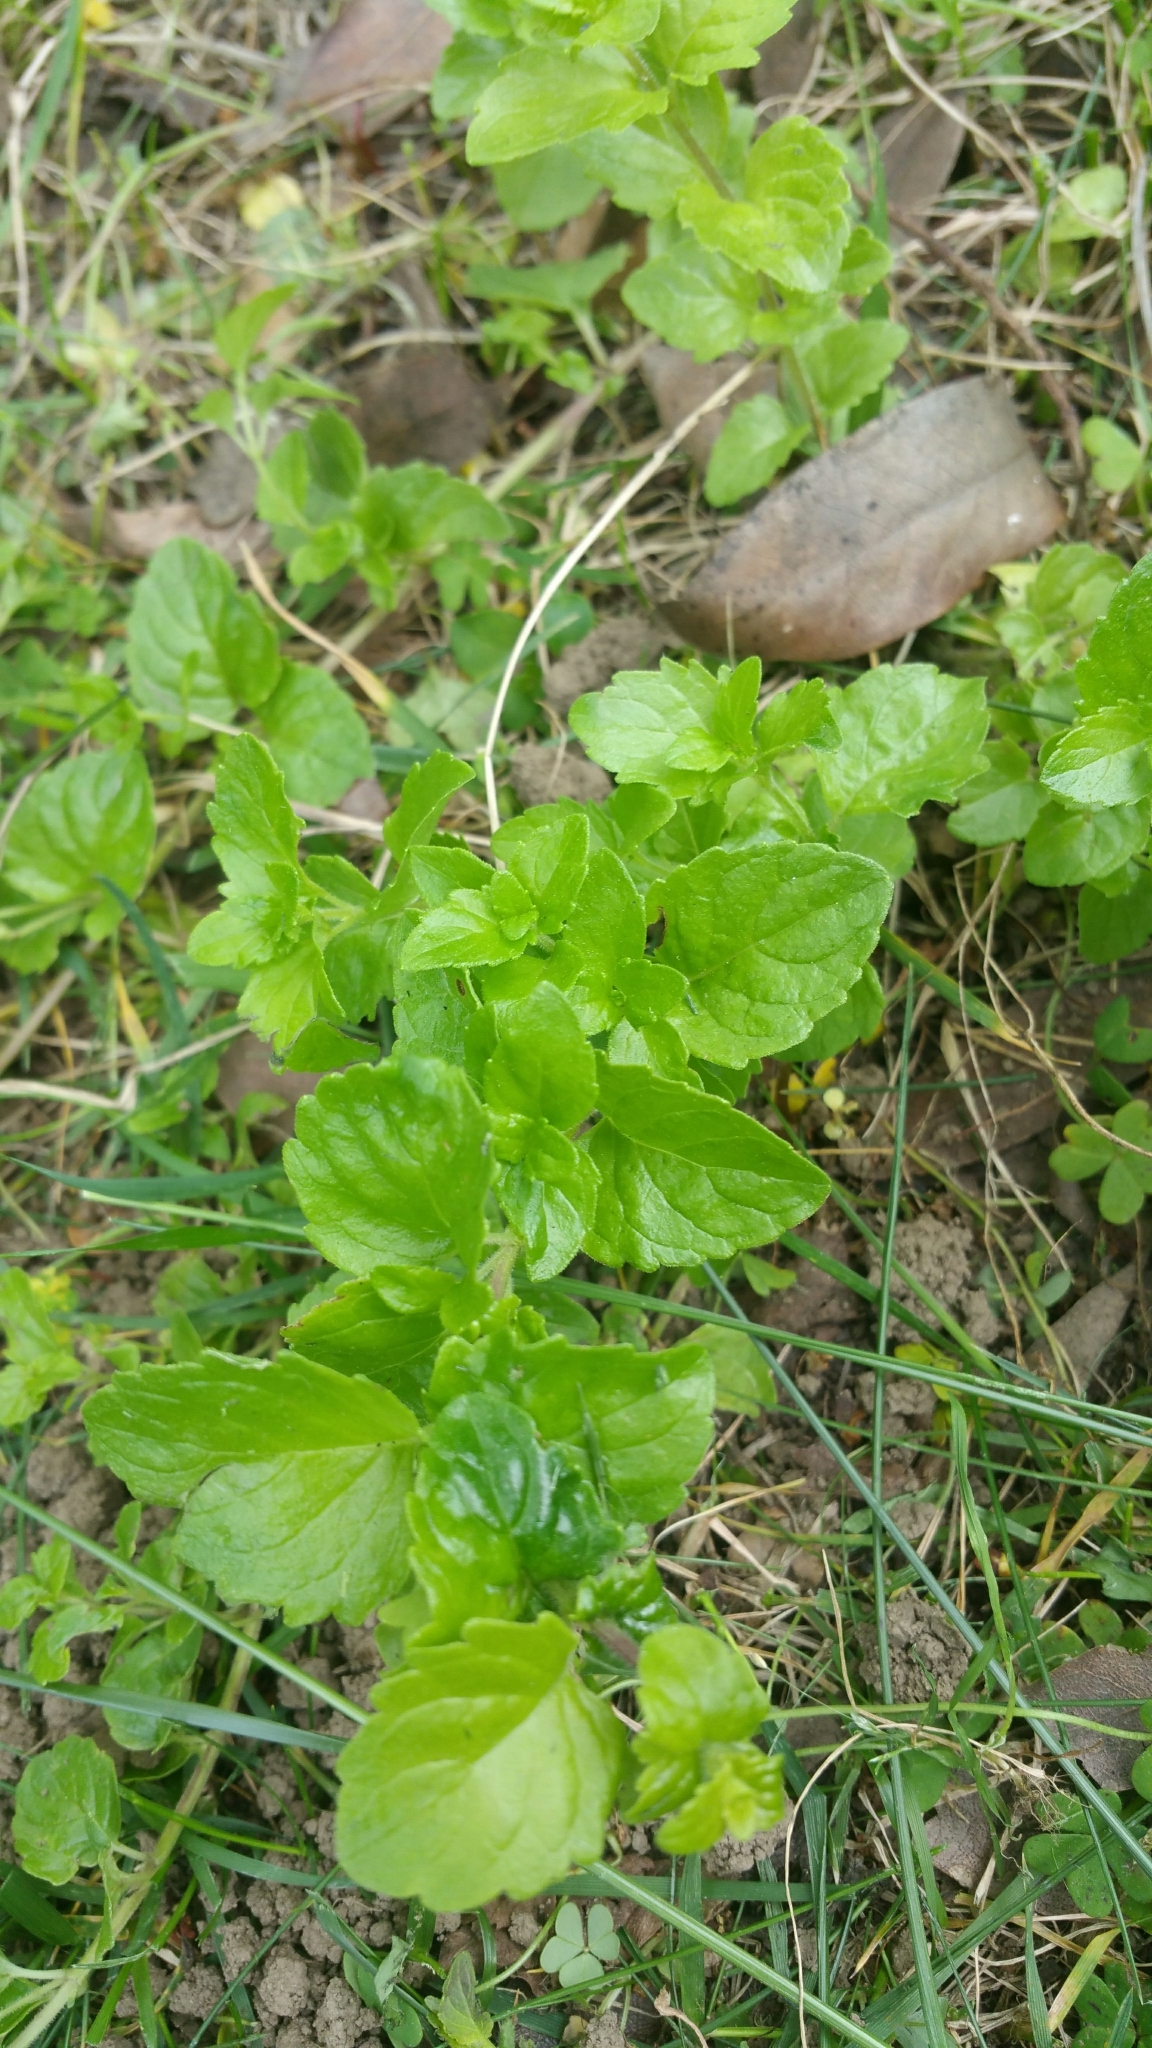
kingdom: Plantae
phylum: Tracheophyta
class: Magnoliopsida
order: Lamiales
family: Lamiaceae
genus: Micromeria
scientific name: Micromeria douglasii
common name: Yerba buena
